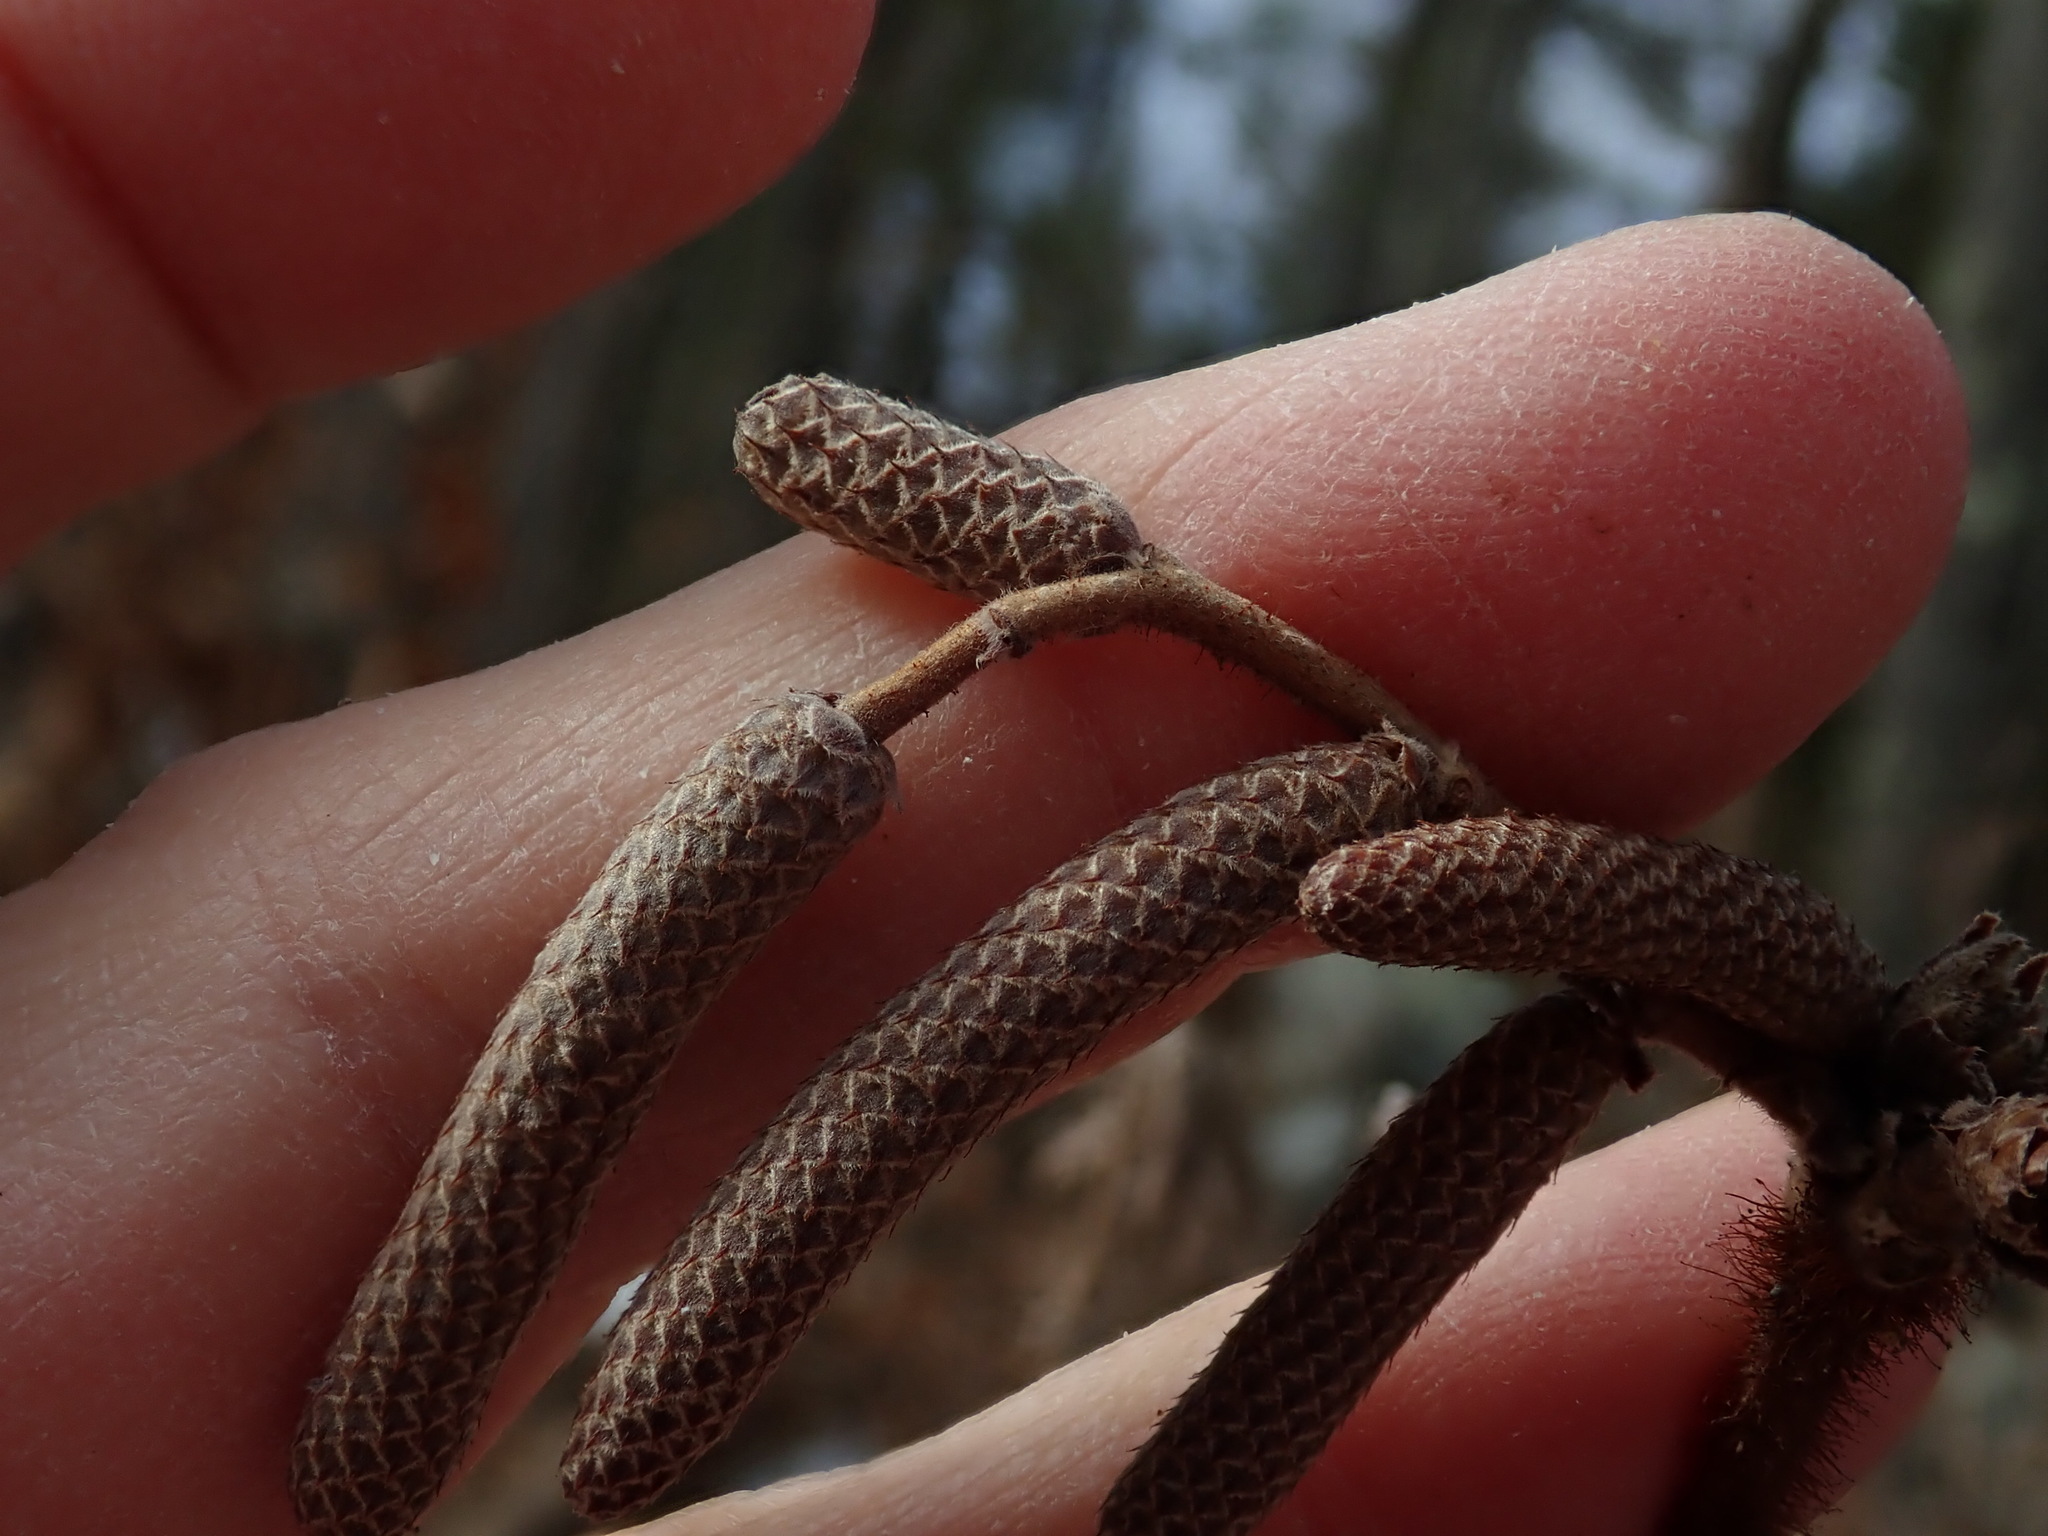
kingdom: Plantae
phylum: Tracheophyta
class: Magnoliopsida
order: Fagales
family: Betulaceae
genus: Corylus
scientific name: Corylus americana
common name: American hazel
